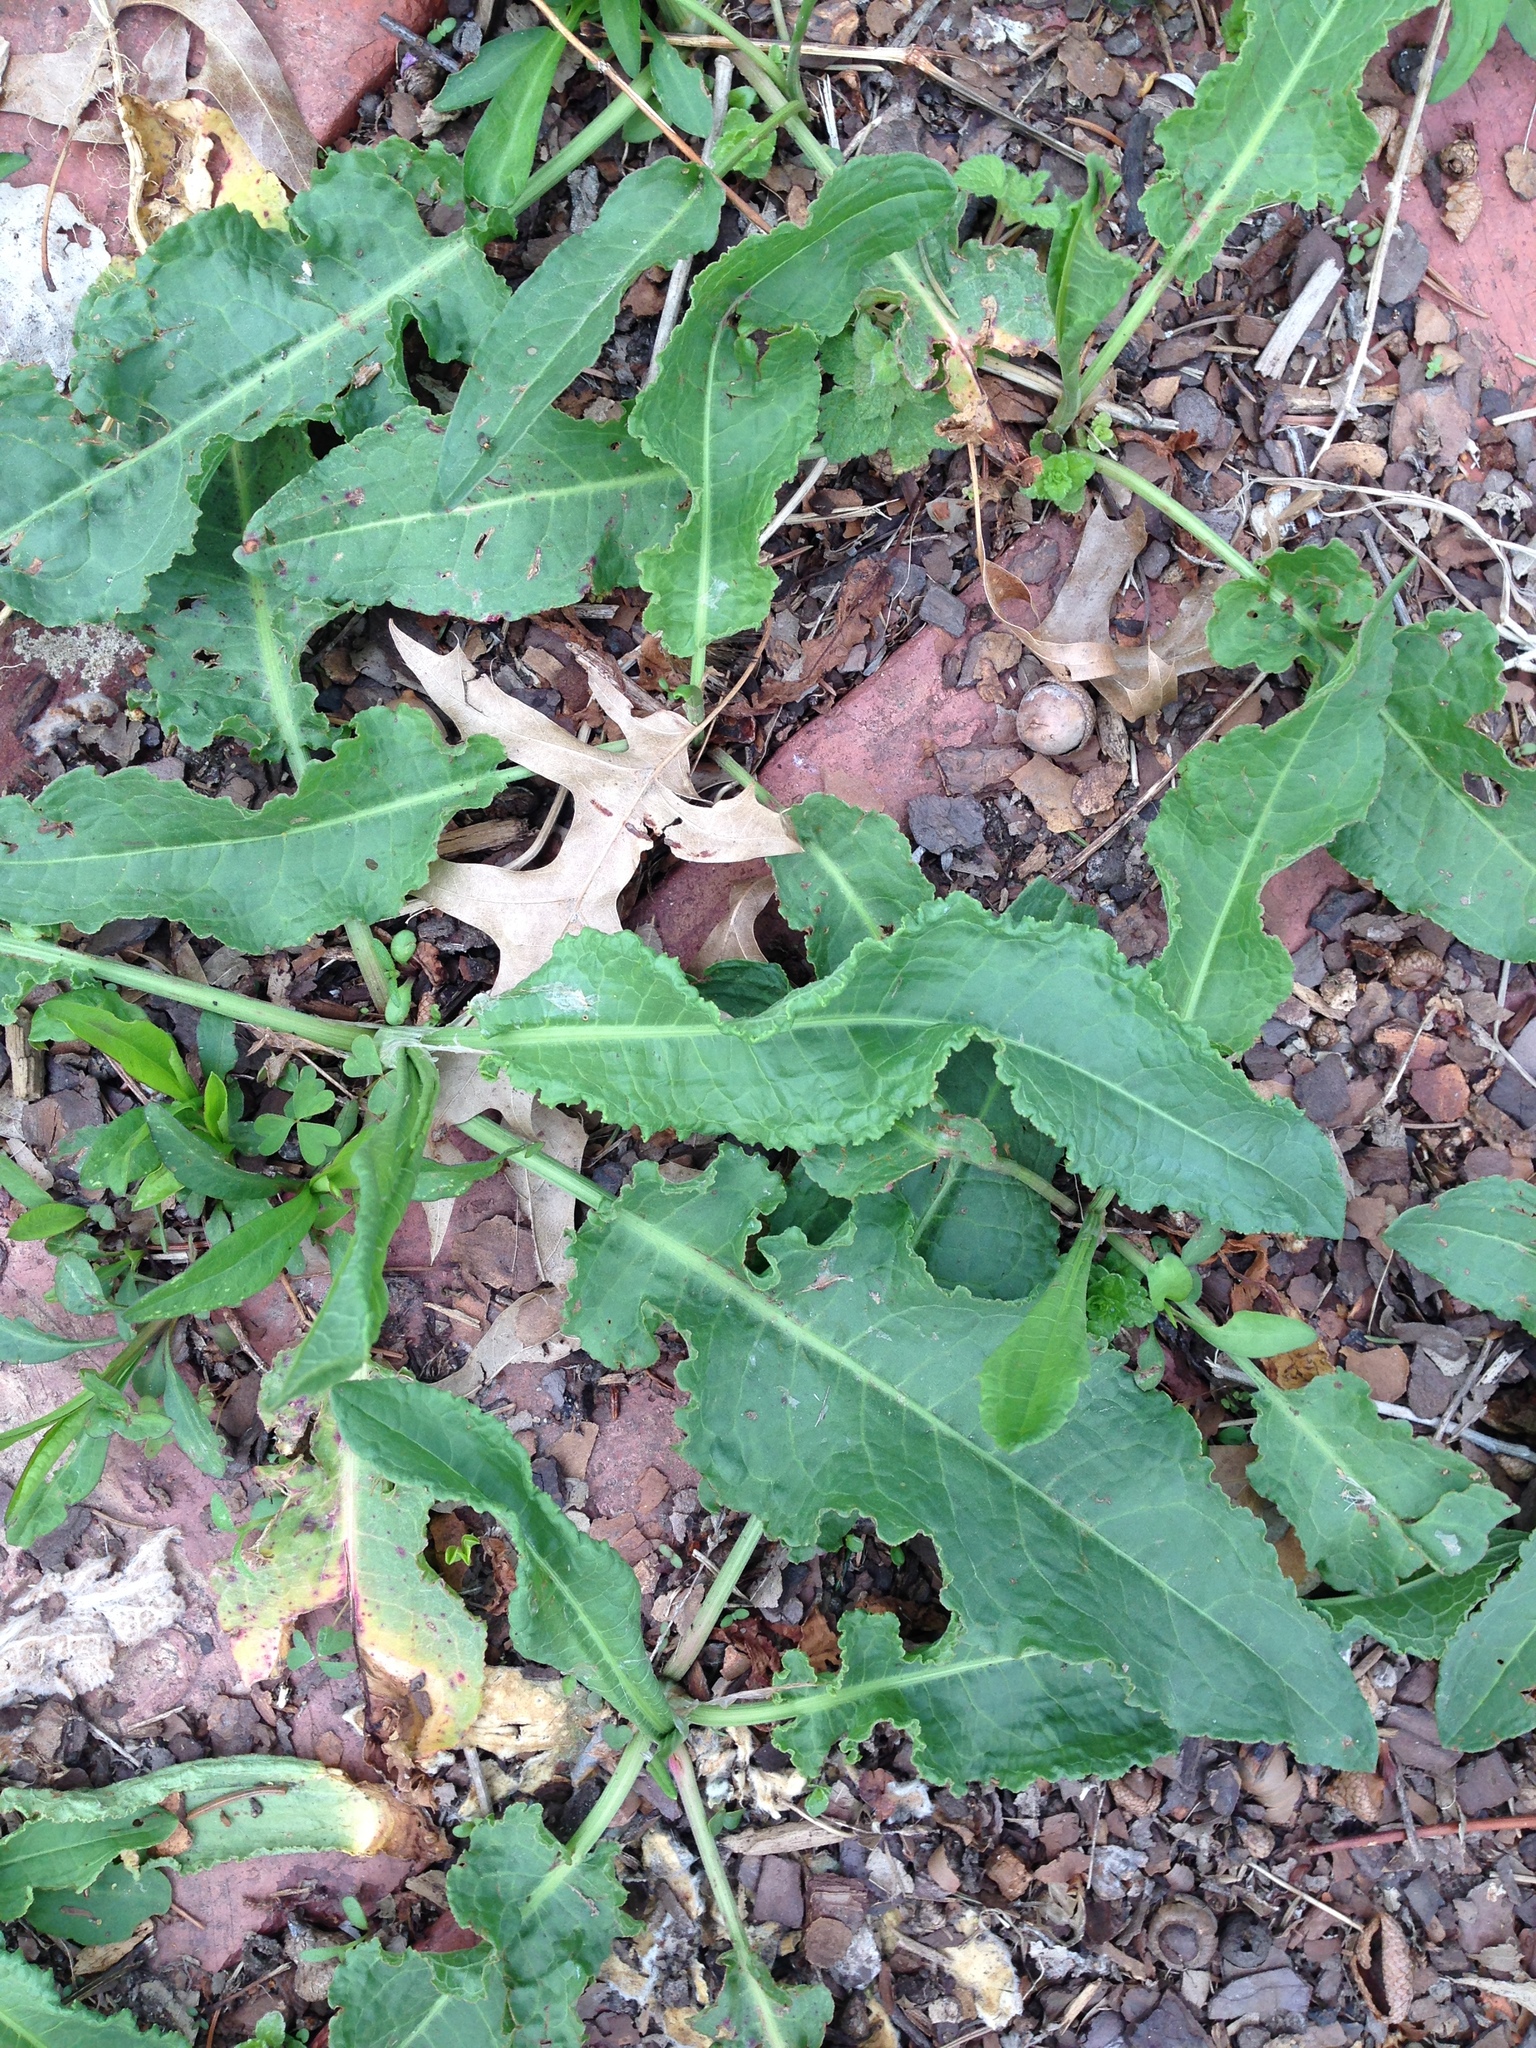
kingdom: Plantae
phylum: Tracheophyta
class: Magnoliopsida
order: Caryophyllales
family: Polygonaceae
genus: Rumex
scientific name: Rumex crispus
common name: Curled dock
